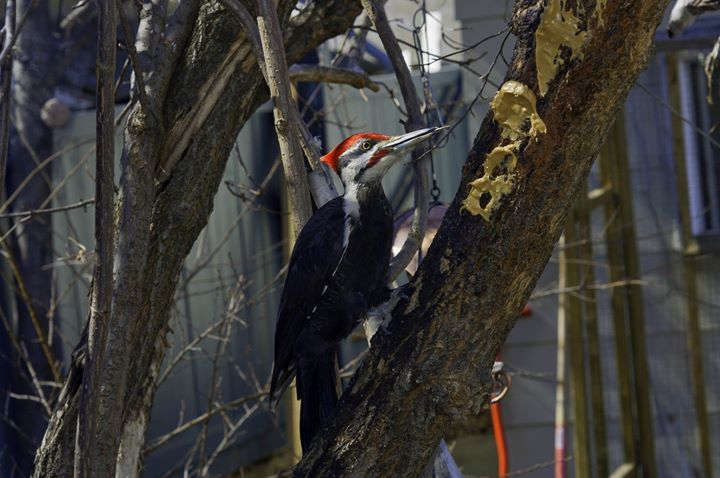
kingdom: Animalia
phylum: Chordata
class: Aves
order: Piciformes
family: Picidae
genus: Dryocopus
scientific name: Dryocopus pileatus
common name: Pileated woodpecker
